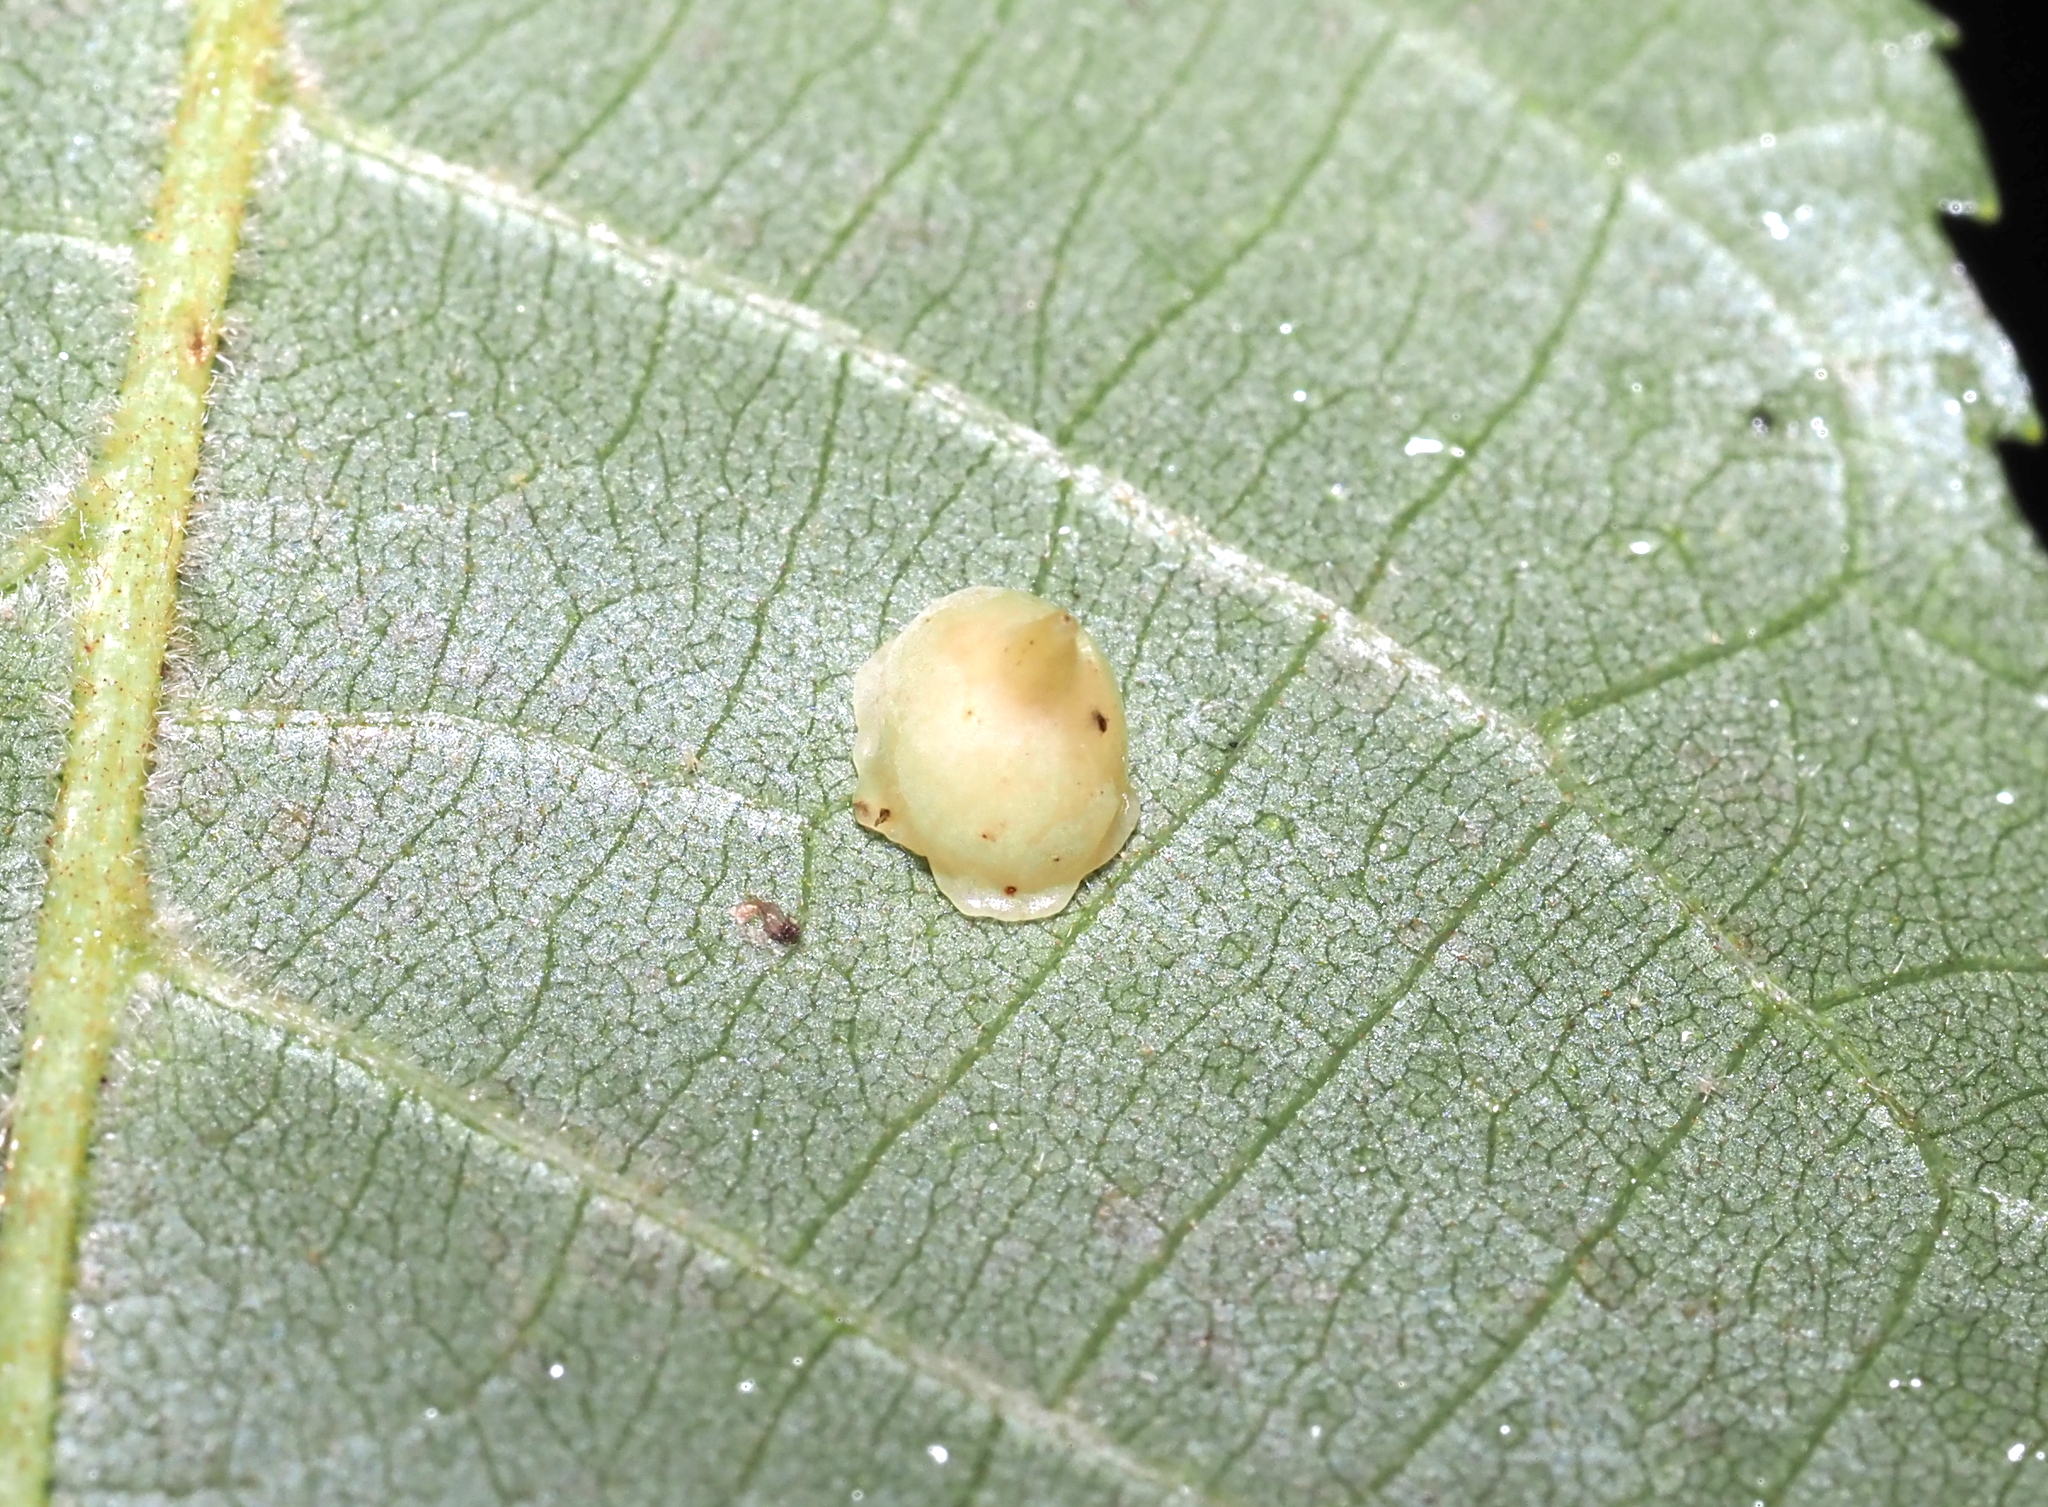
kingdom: Animalia
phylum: Arthropoda
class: Insecta
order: Diptera
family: Cecidomyiidae
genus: Caryomyia
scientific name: Caryomyia sanguinolenta
